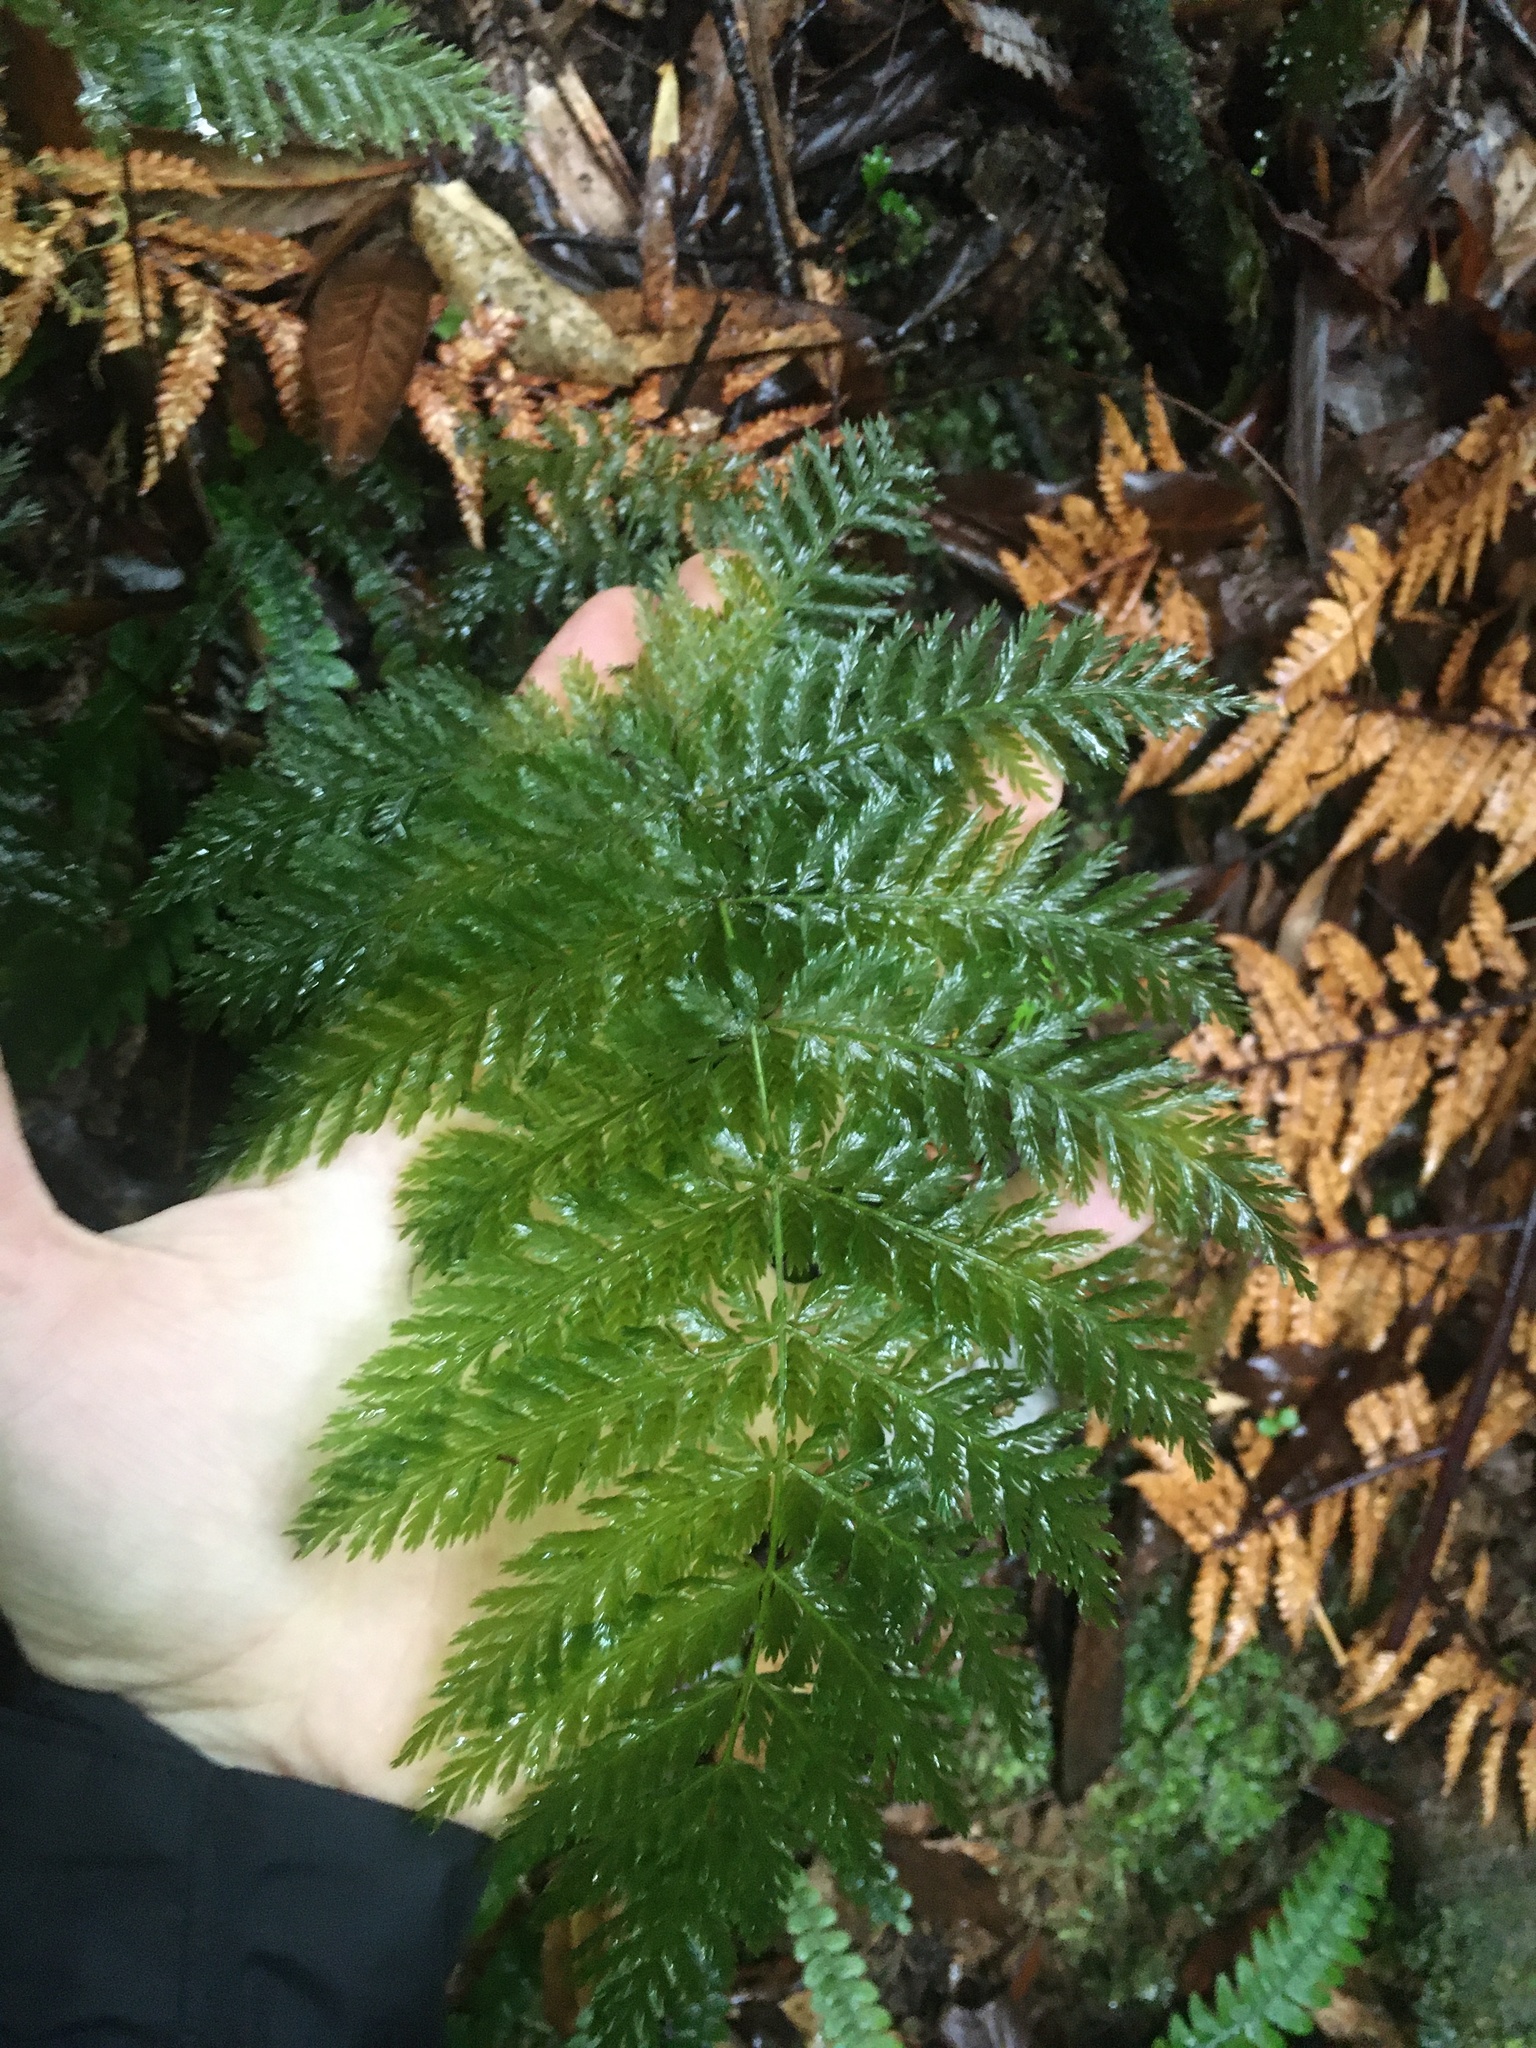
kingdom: Plantae
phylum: Tracheophyta
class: Polypodiopsida
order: Osmundales
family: Osmundaceae
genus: Leptopteris
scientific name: Leptopteris hymenophylloides
